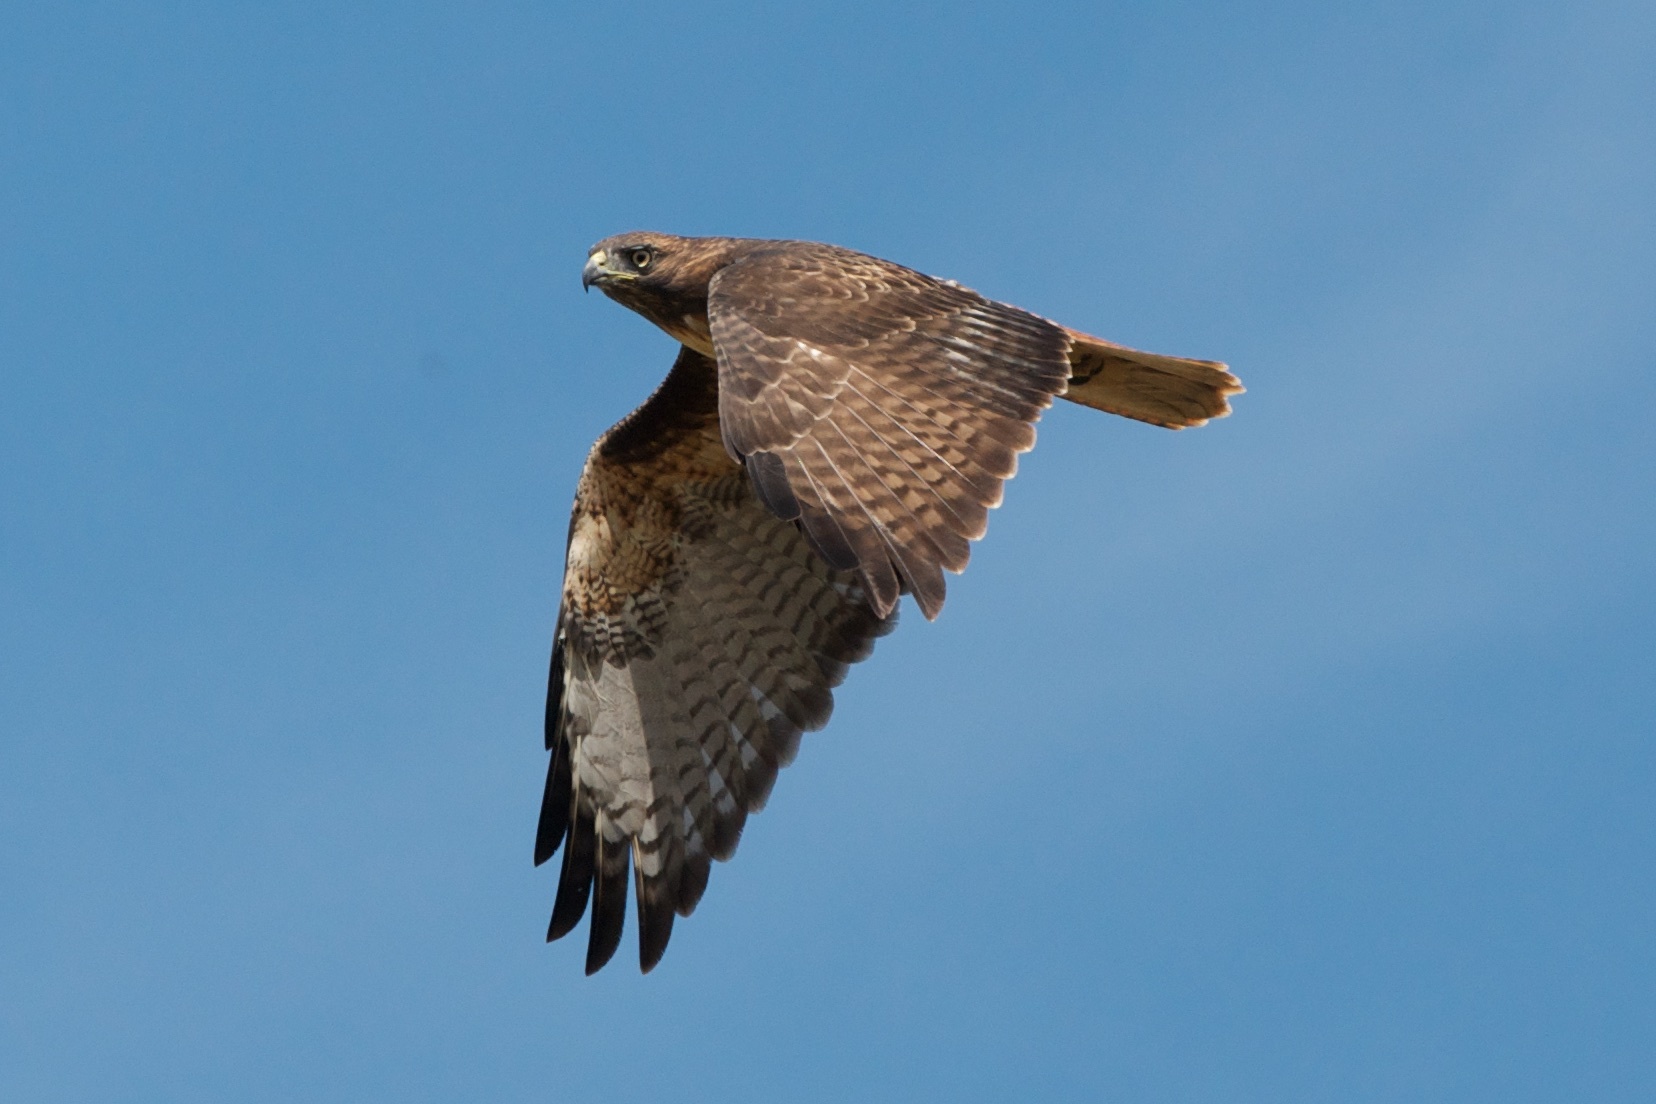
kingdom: Animalia
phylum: Chordata
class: Aves
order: Accipitriformes
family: Accipitridae
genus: Buteo
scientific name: Buteo jamaicensis
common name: Red-tailed hawk
